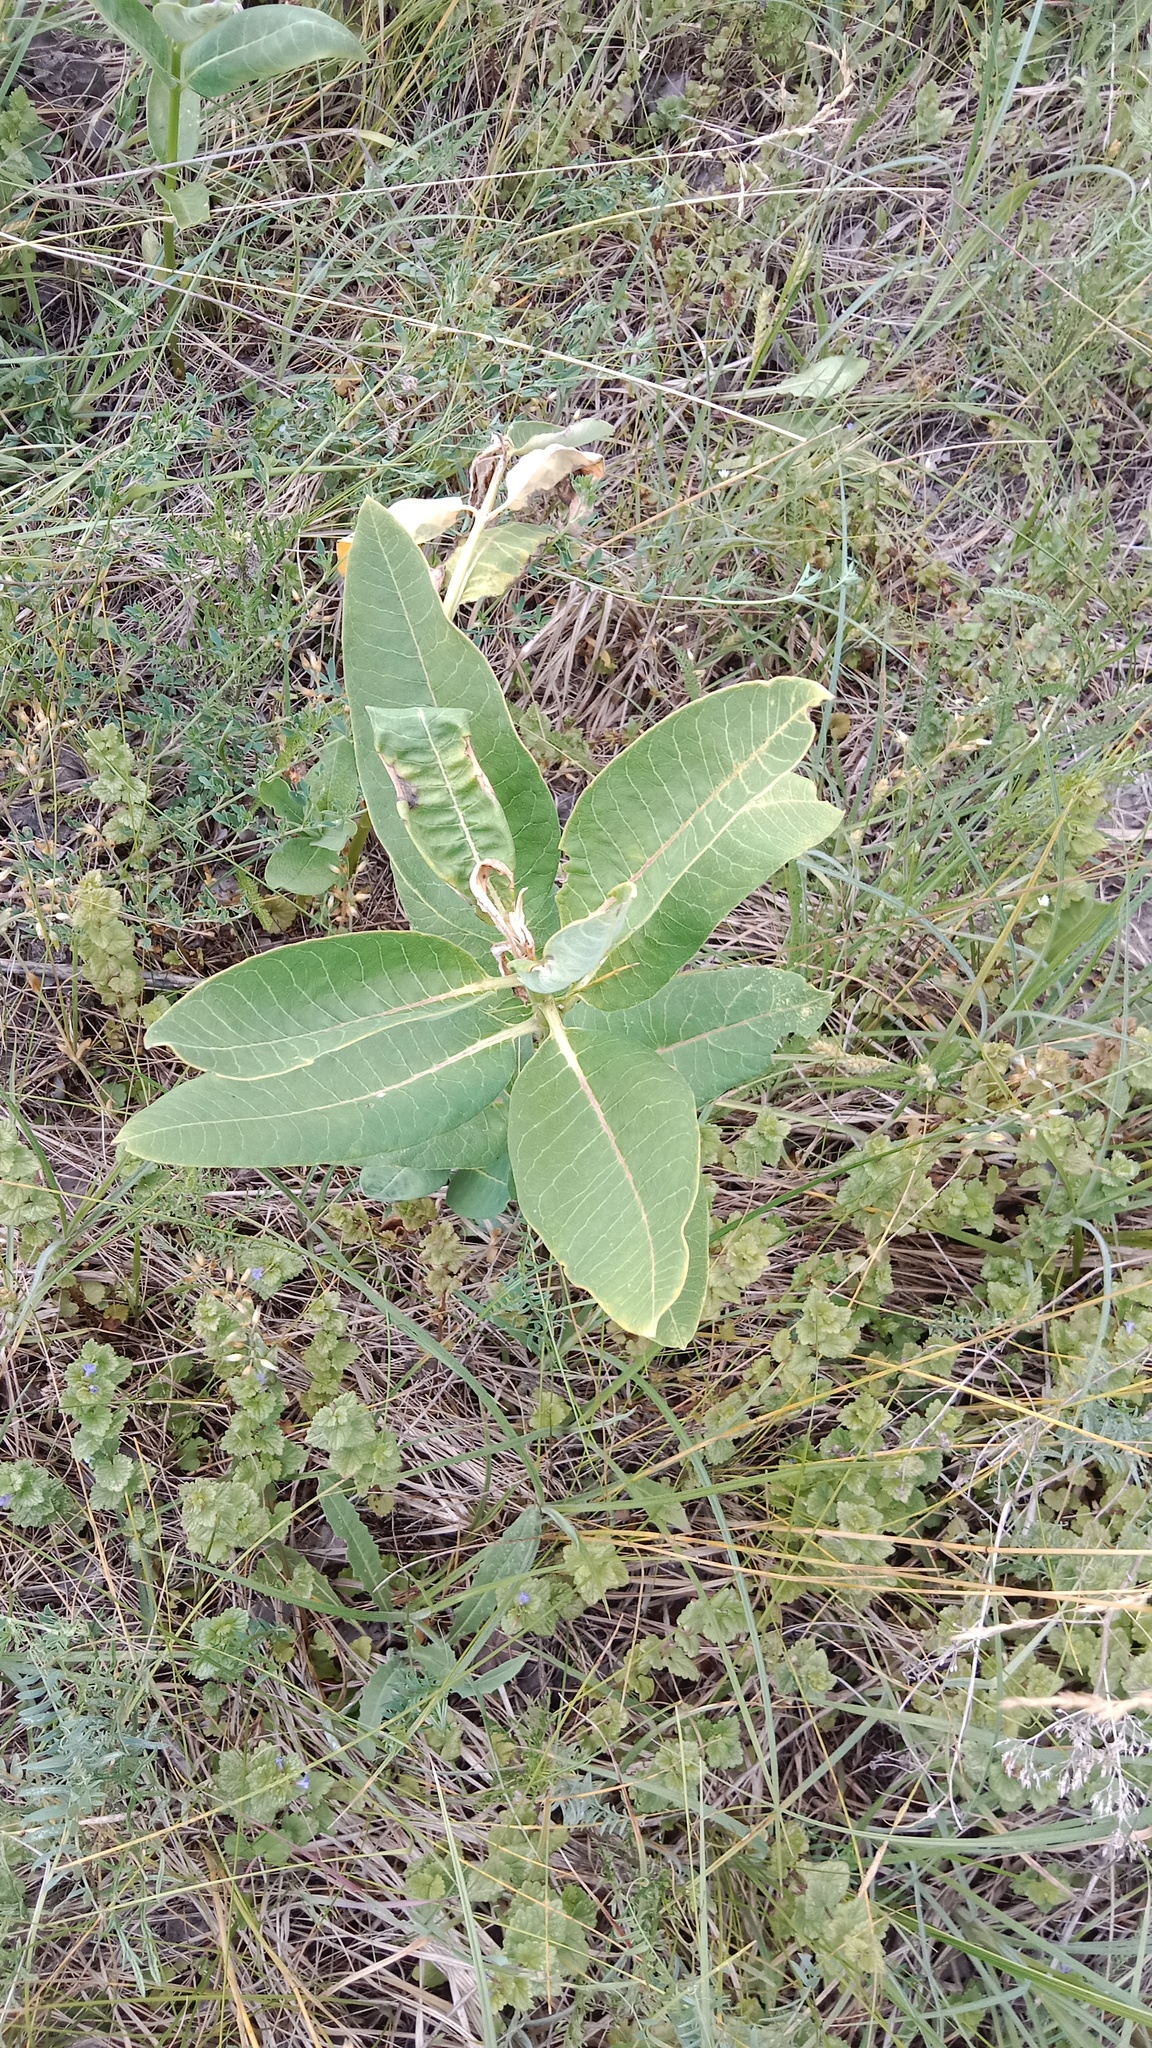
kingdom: Plantae
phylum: Tracheophyta
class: Magnoliopsida
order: Gentianales
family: Apocynaceae
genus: Asclepias
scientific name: Asclepias syriaca
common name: Common milkweed
